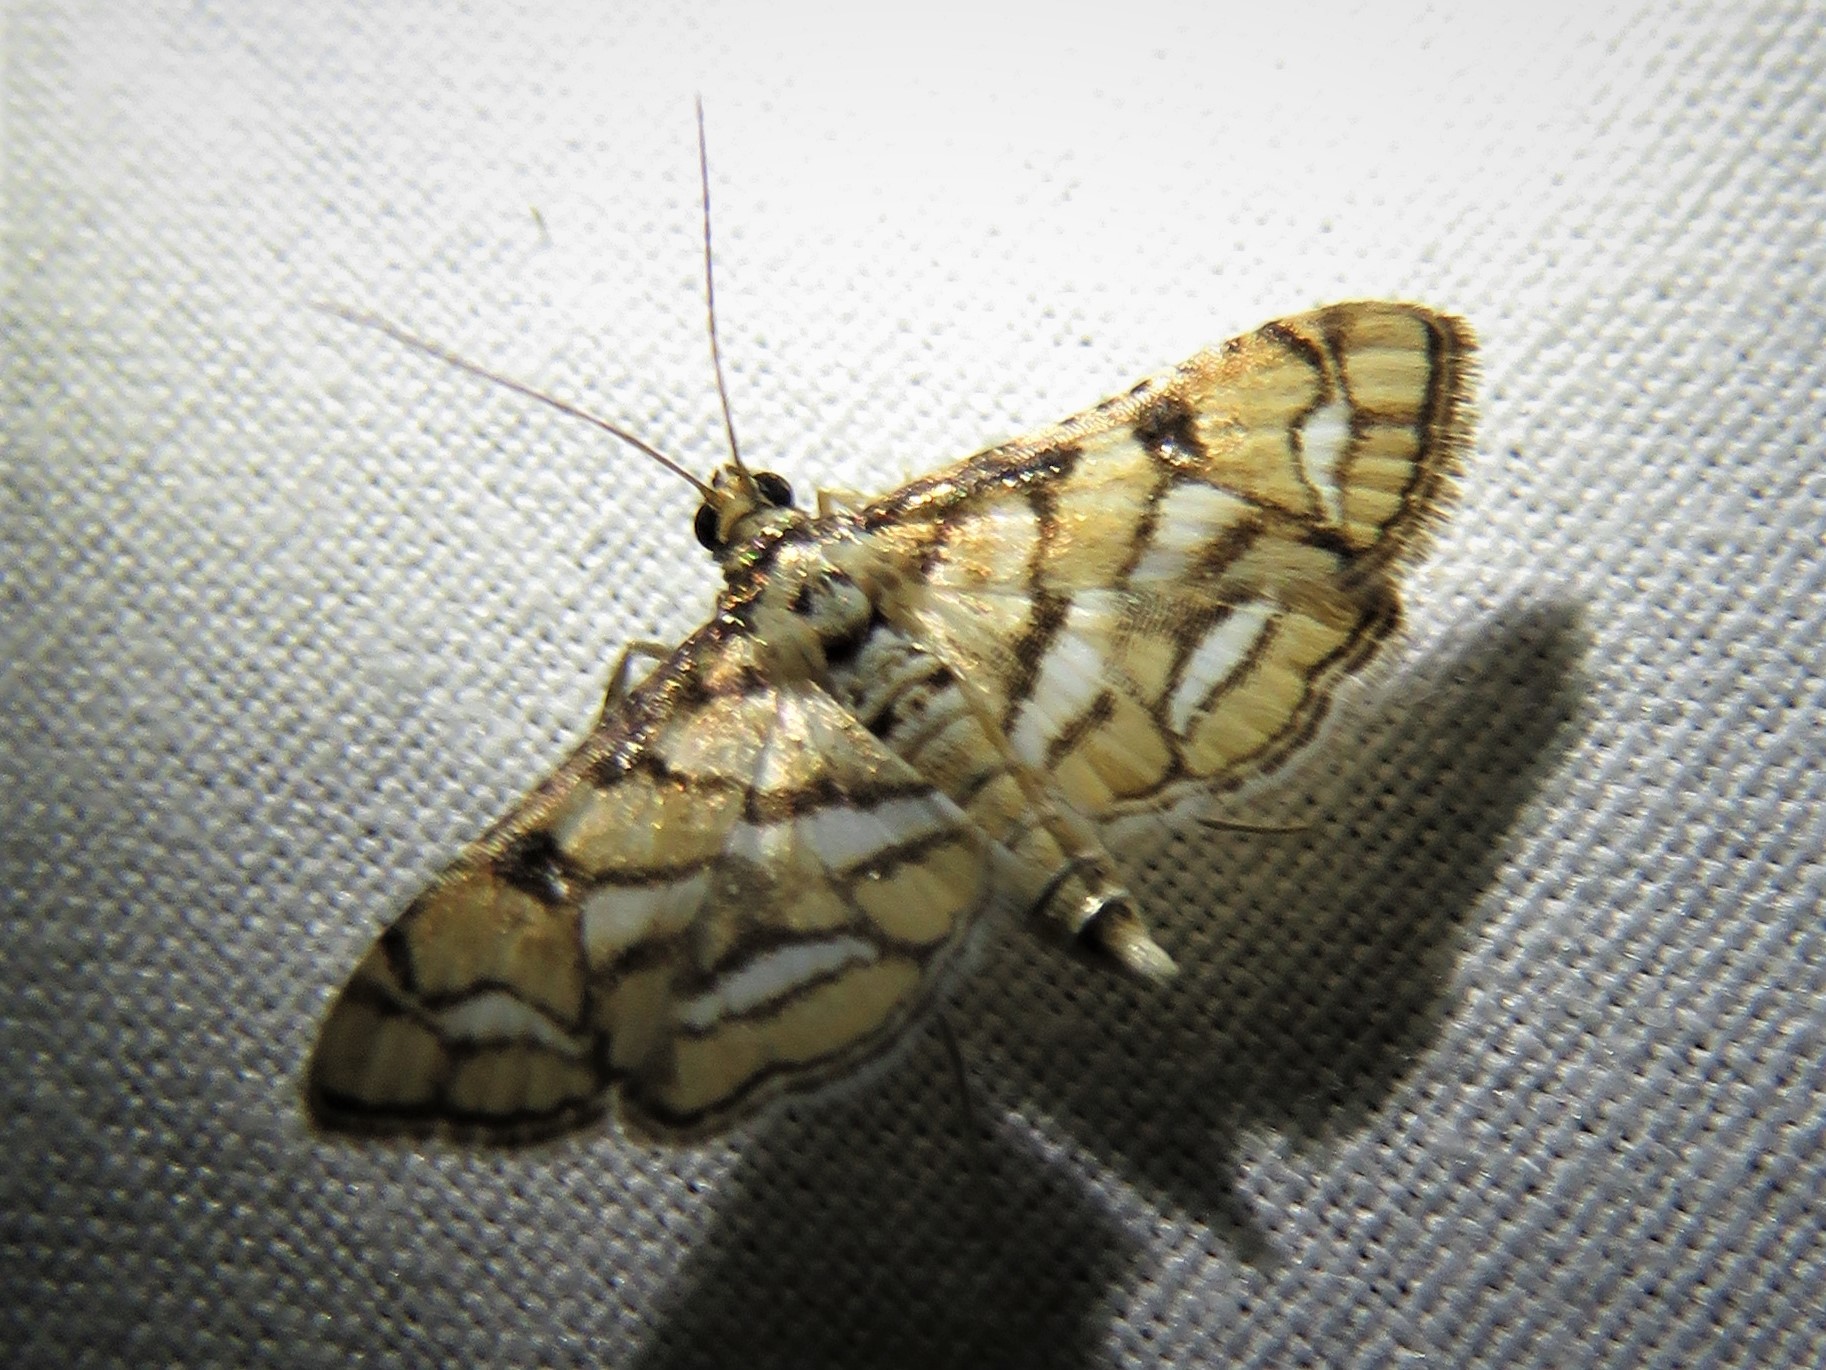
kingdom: Animalia
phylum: Arthropoda
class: Insecta
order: Lepidoptera
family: Crambidae
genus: Hileithia
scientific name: Hileithia magualis
